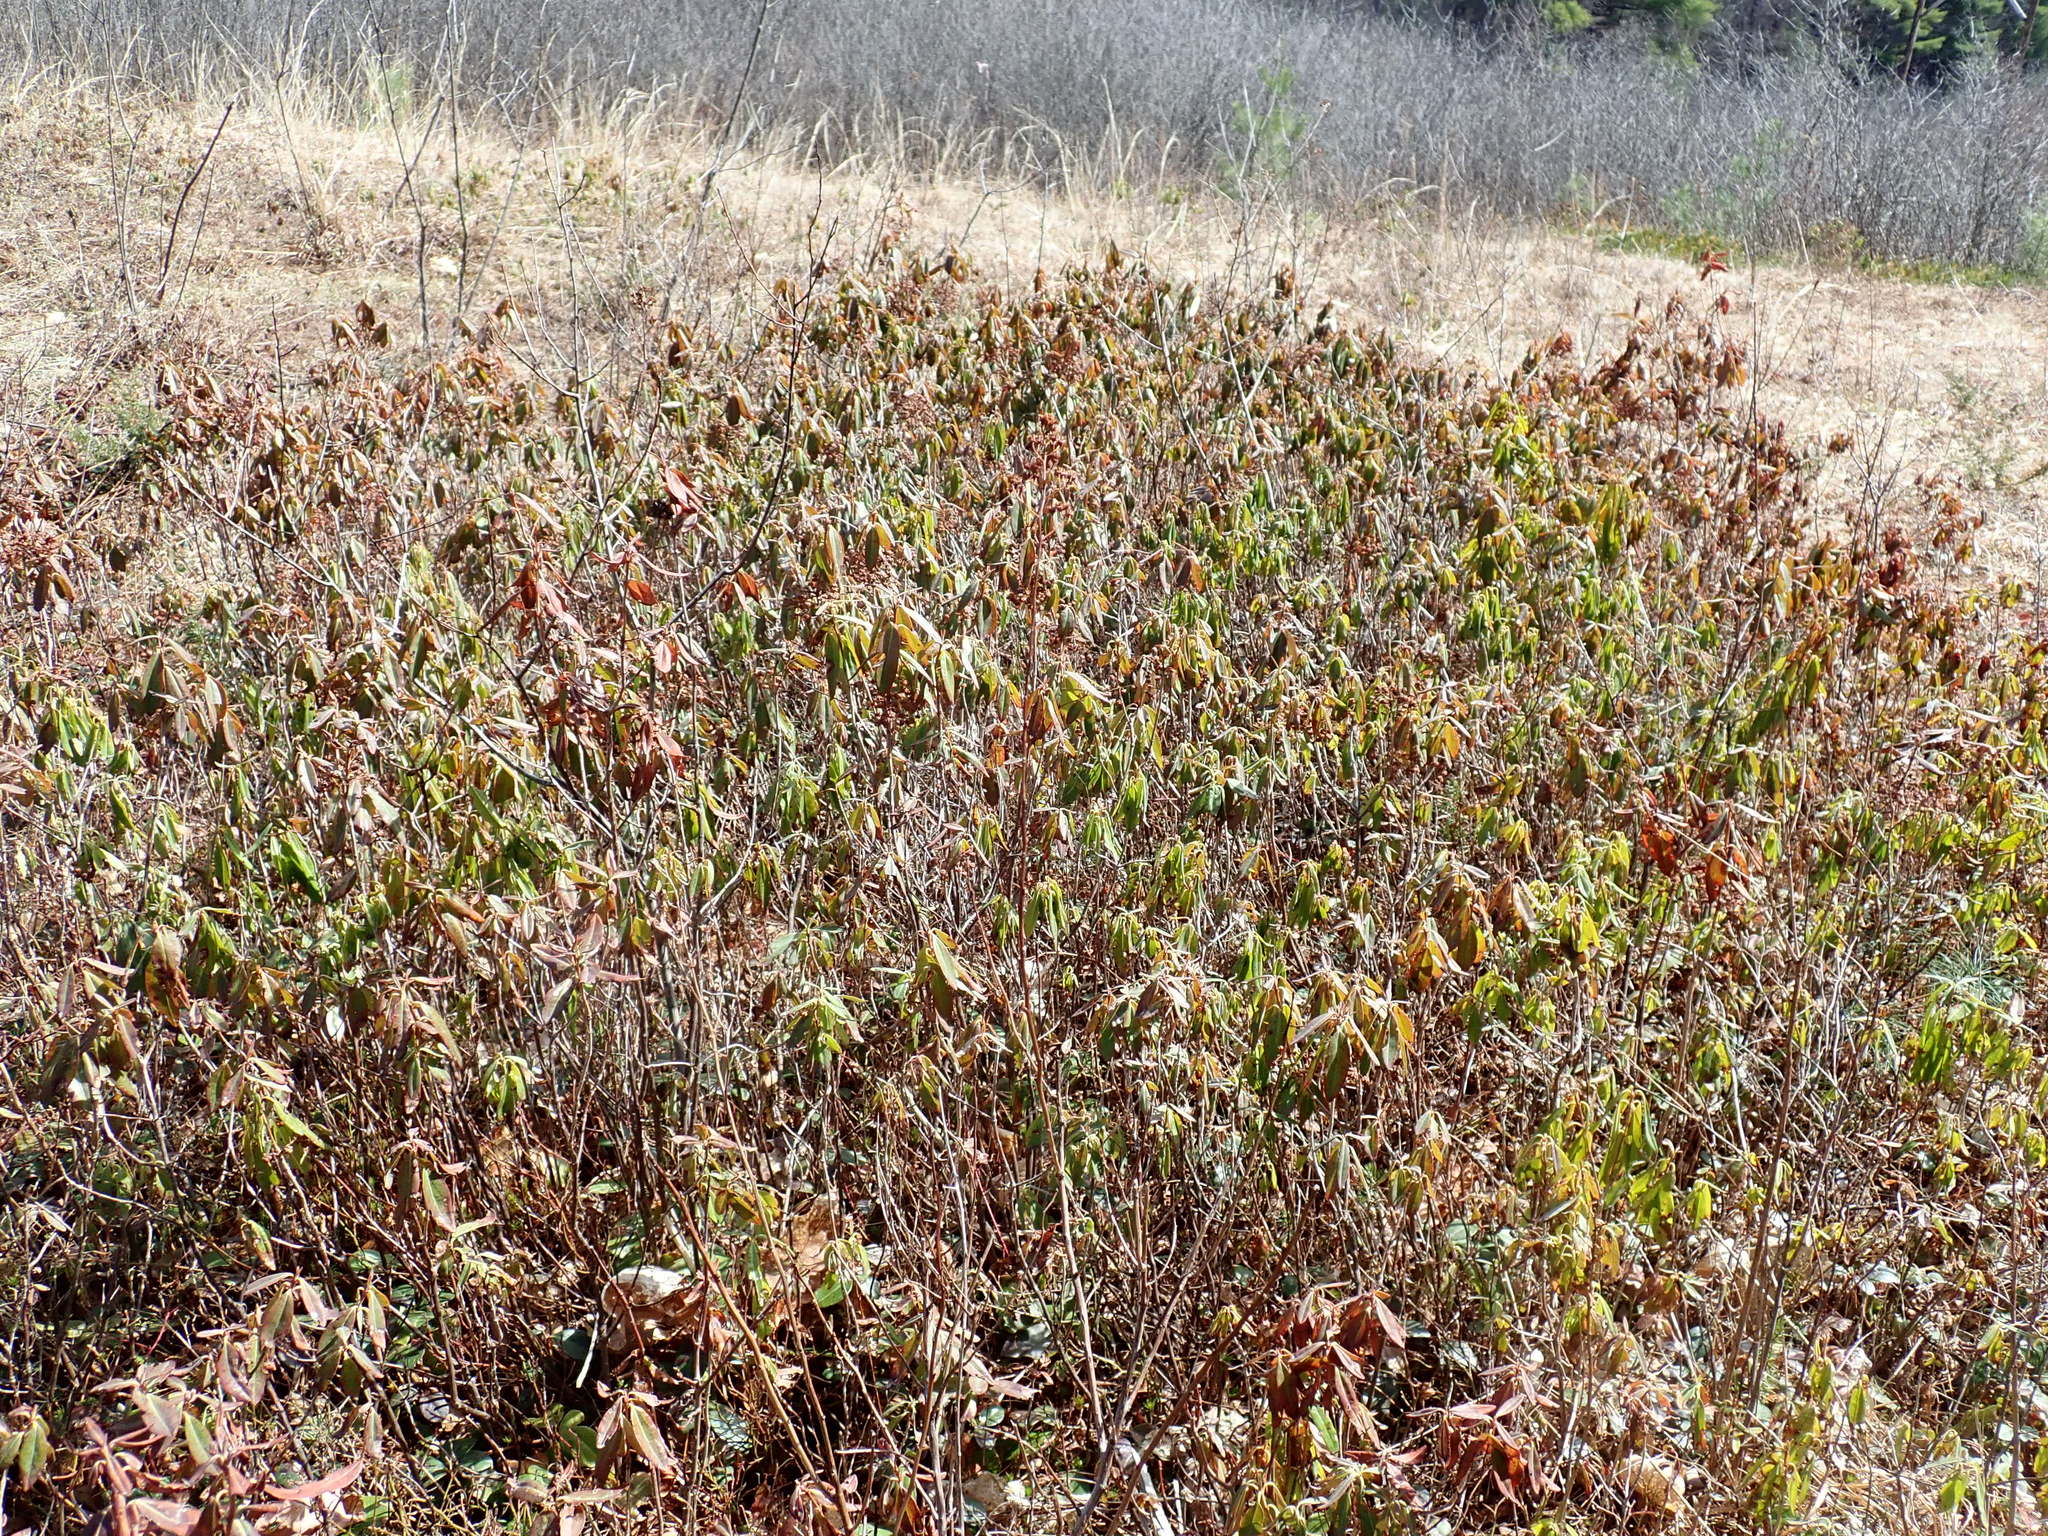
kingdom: Plantae
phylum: Tracheophyta
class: Magnoliopsida
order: Ericales
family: Ericaceae
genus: Kalmia
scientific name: Kalmia angustifolia
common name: Sheep-laurel
